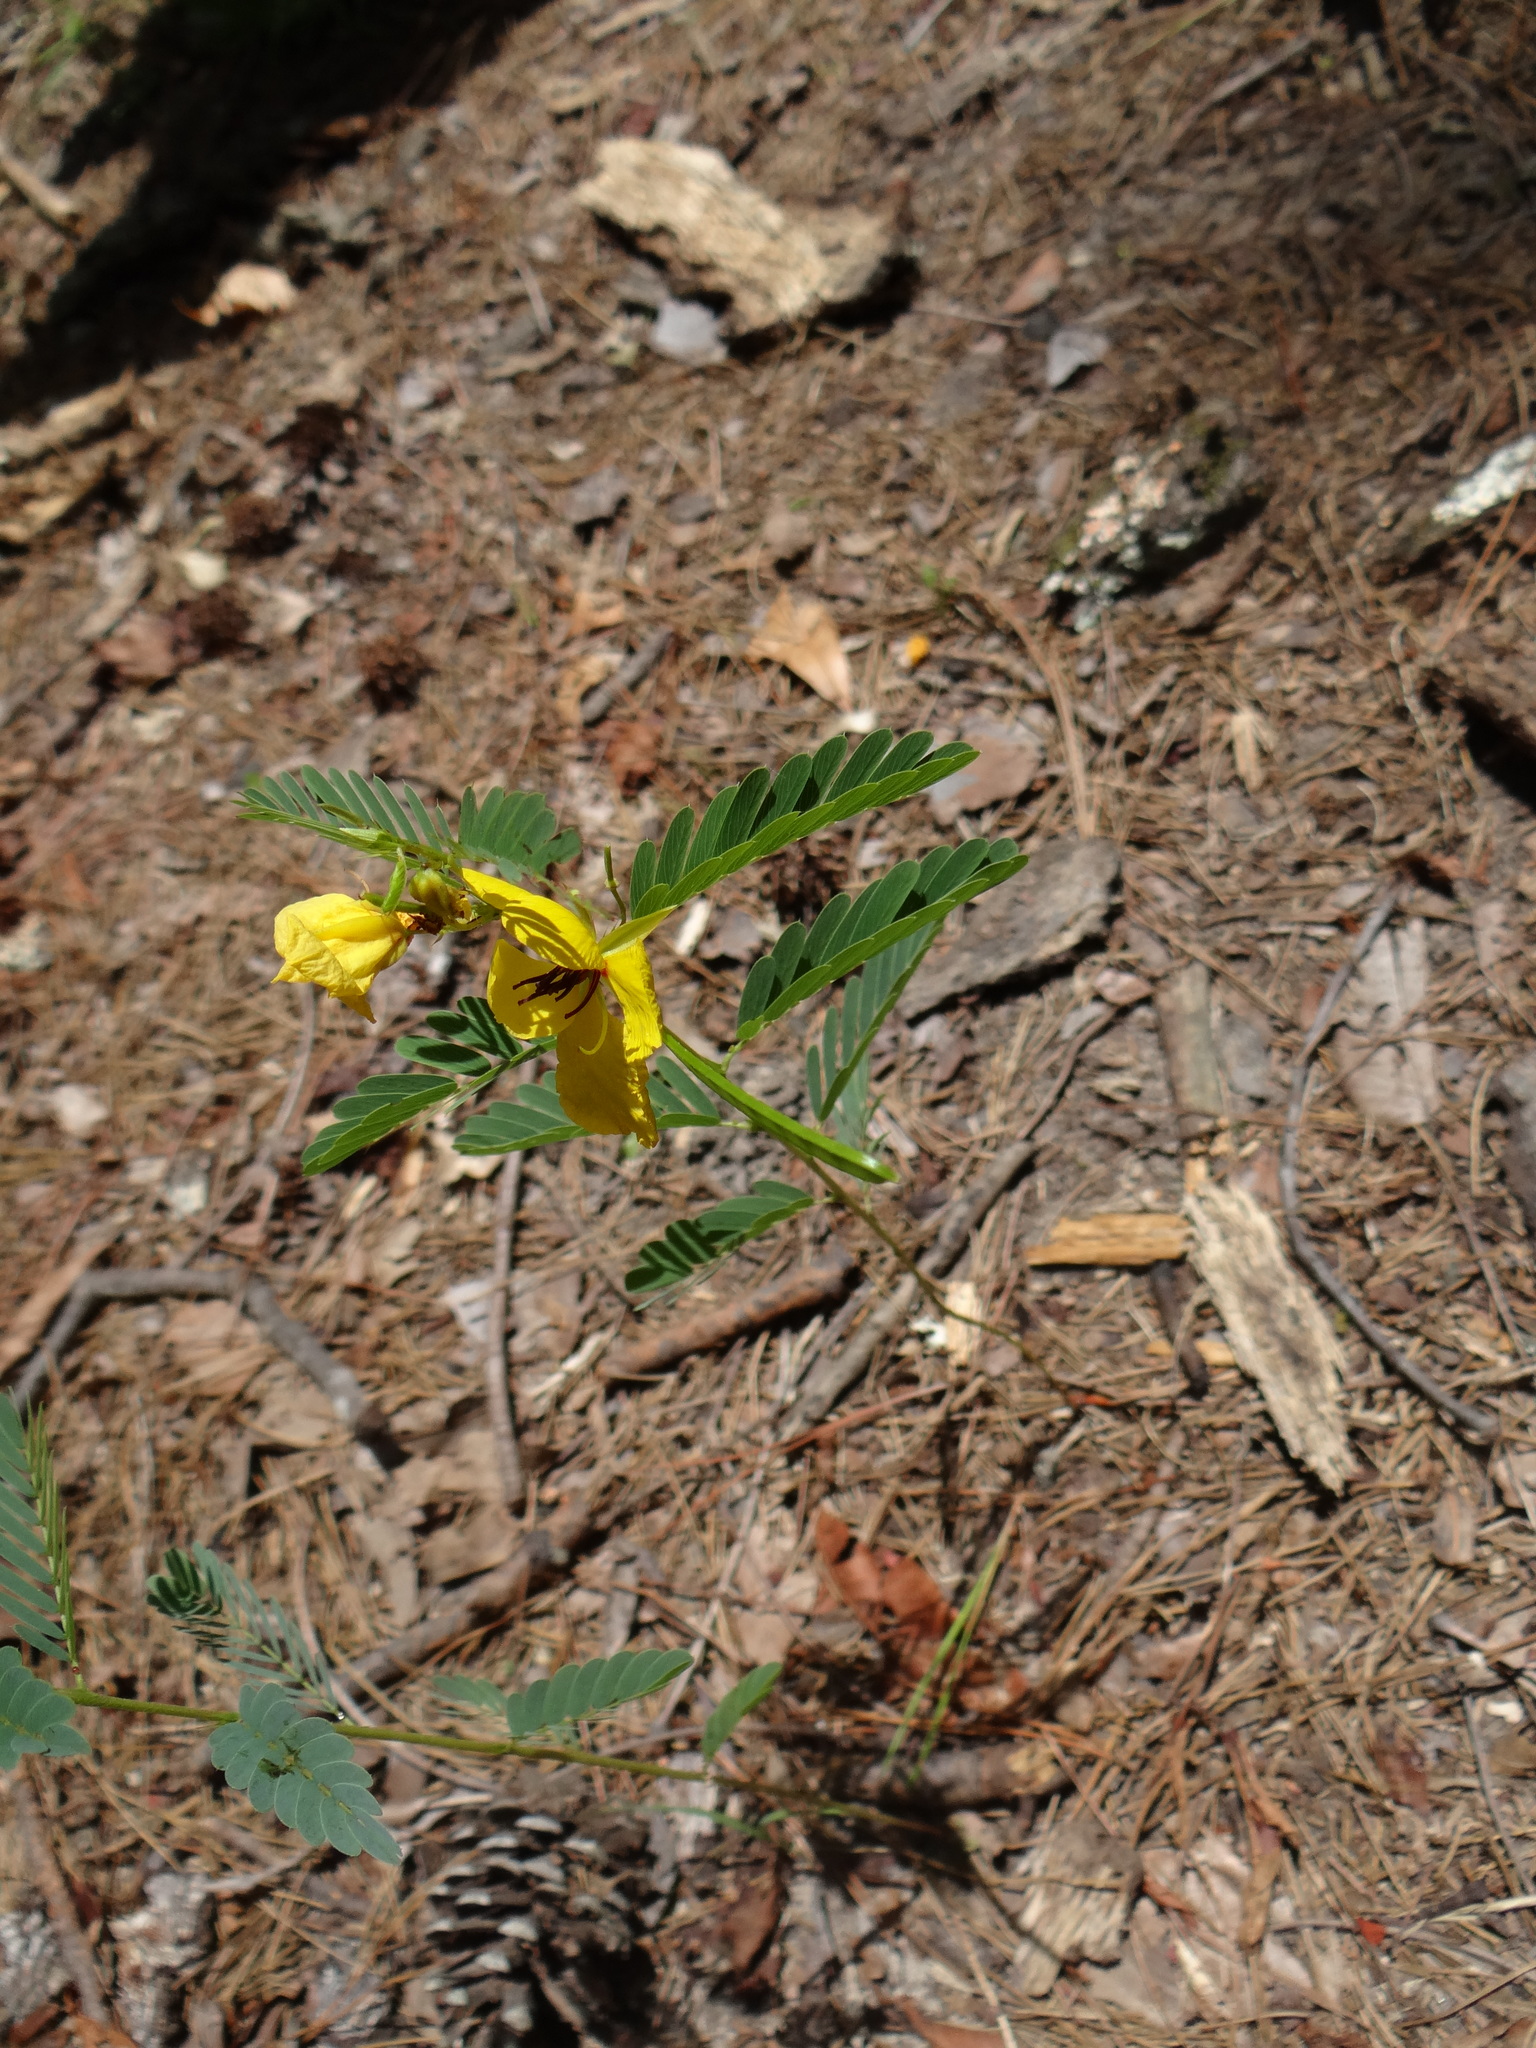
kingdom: Plantae
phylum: Tracheophyta
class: Magnoliopsida
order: Fabales
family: Fabaceae
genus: Chamaecrista
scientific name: Chamaecrista fasciculata
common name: Golden cassia
